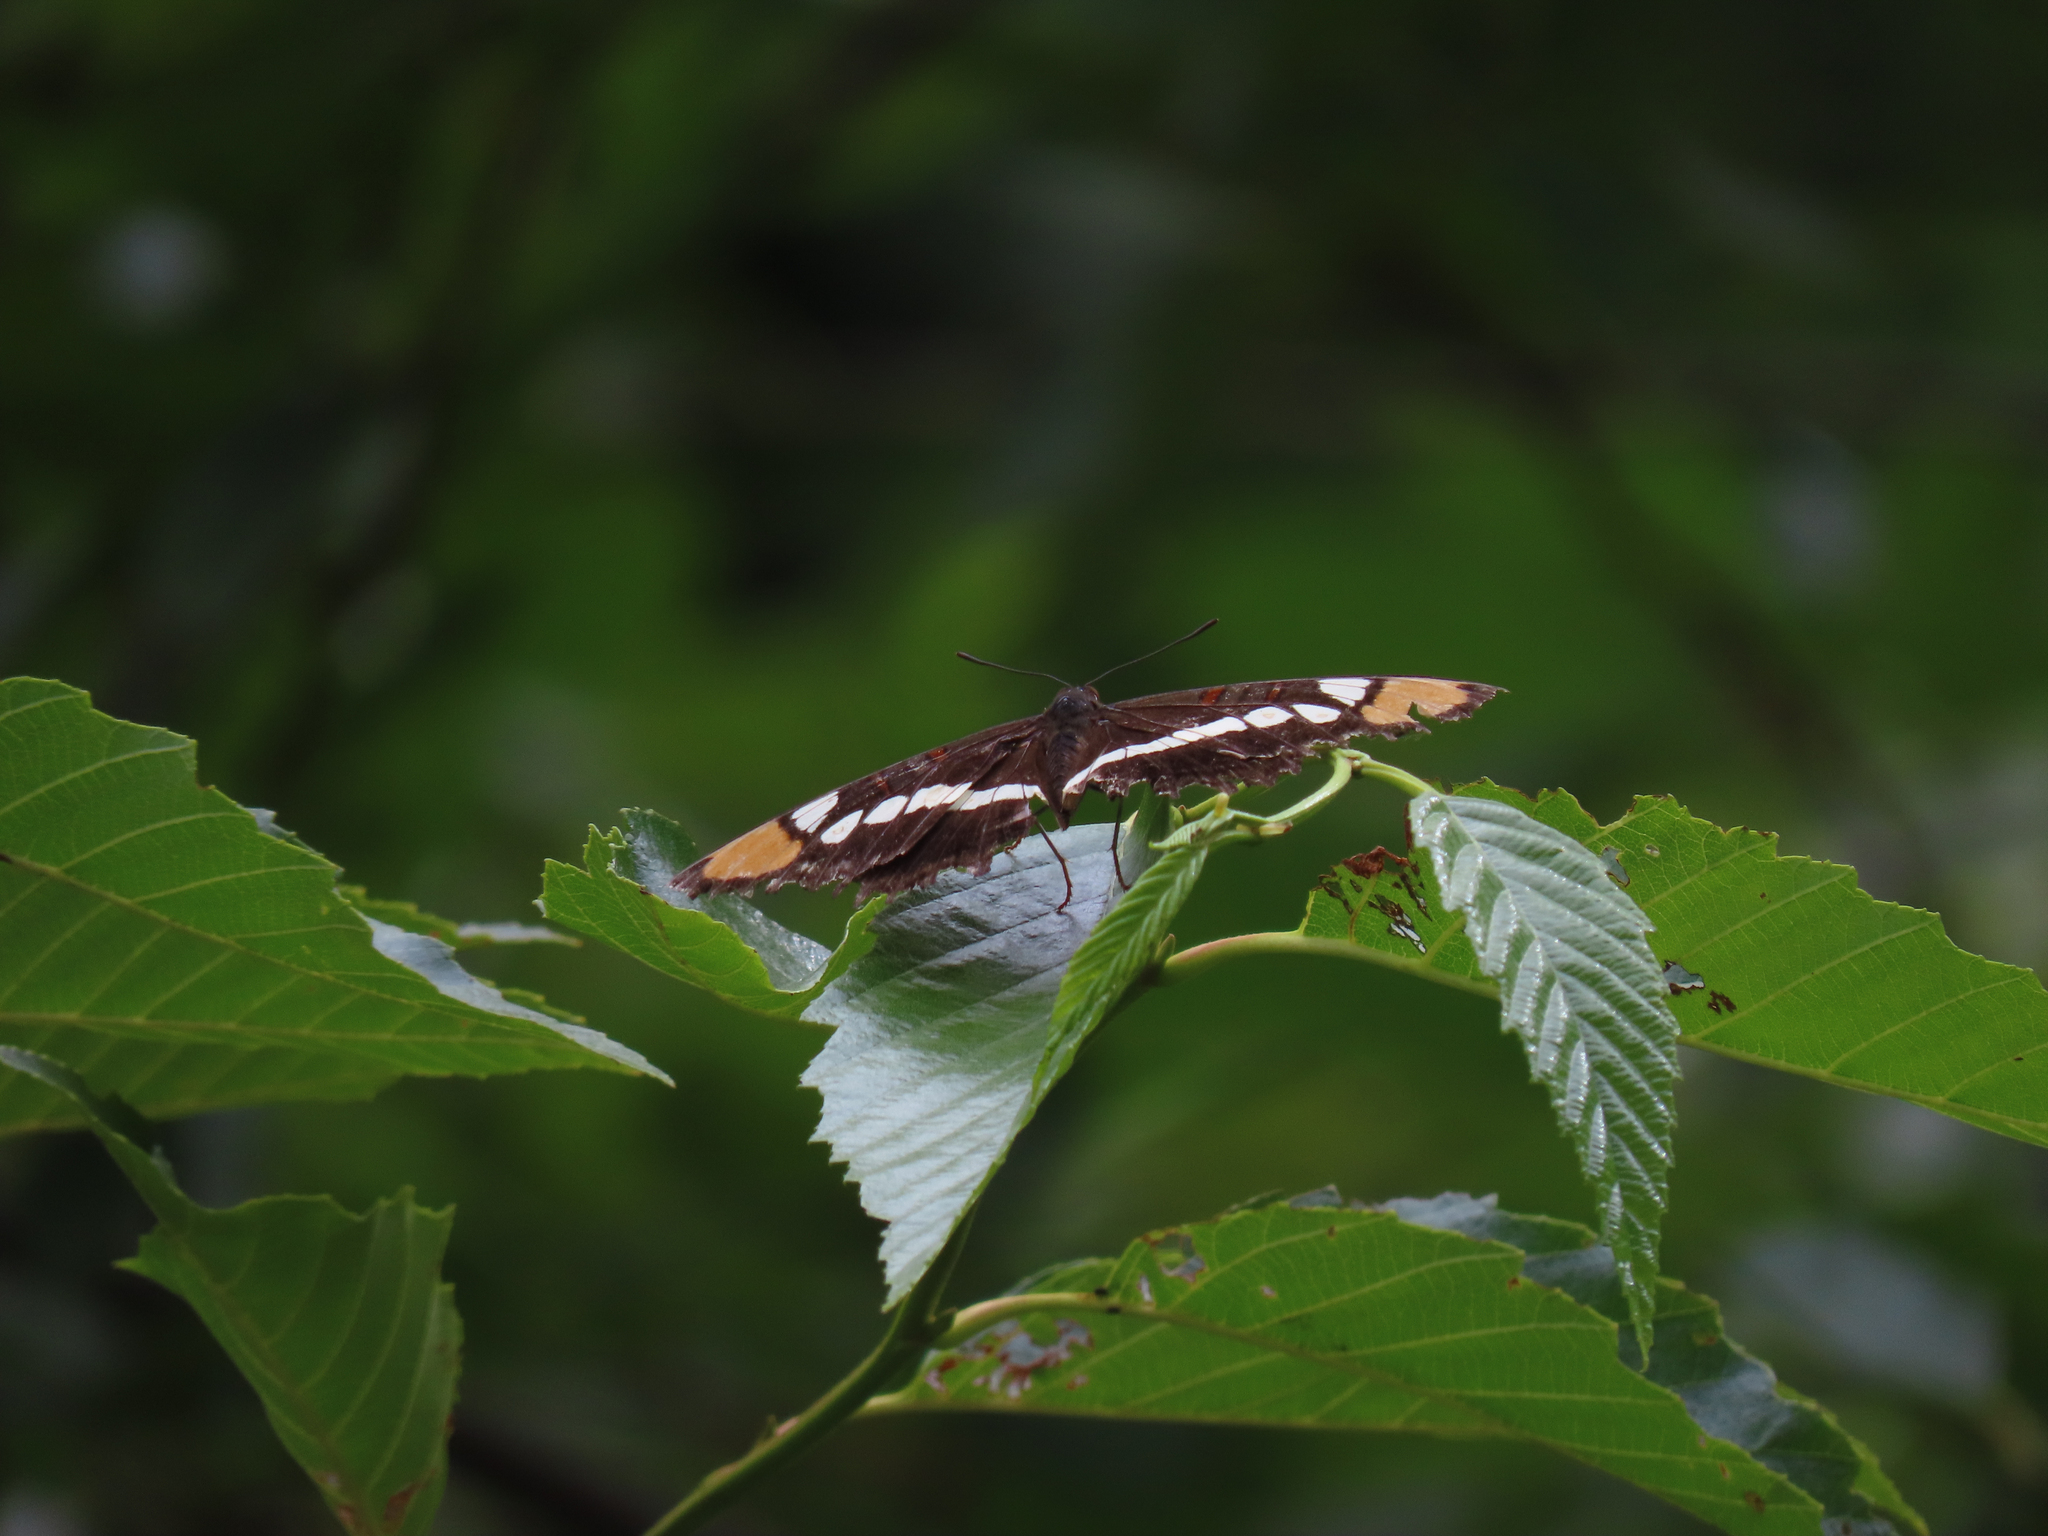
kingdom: Animalia
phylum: Arthropoda
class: Insecta
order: Lepidoptera
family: Nymphalidae
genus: Limenitis
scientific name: Limenitis bredowii
